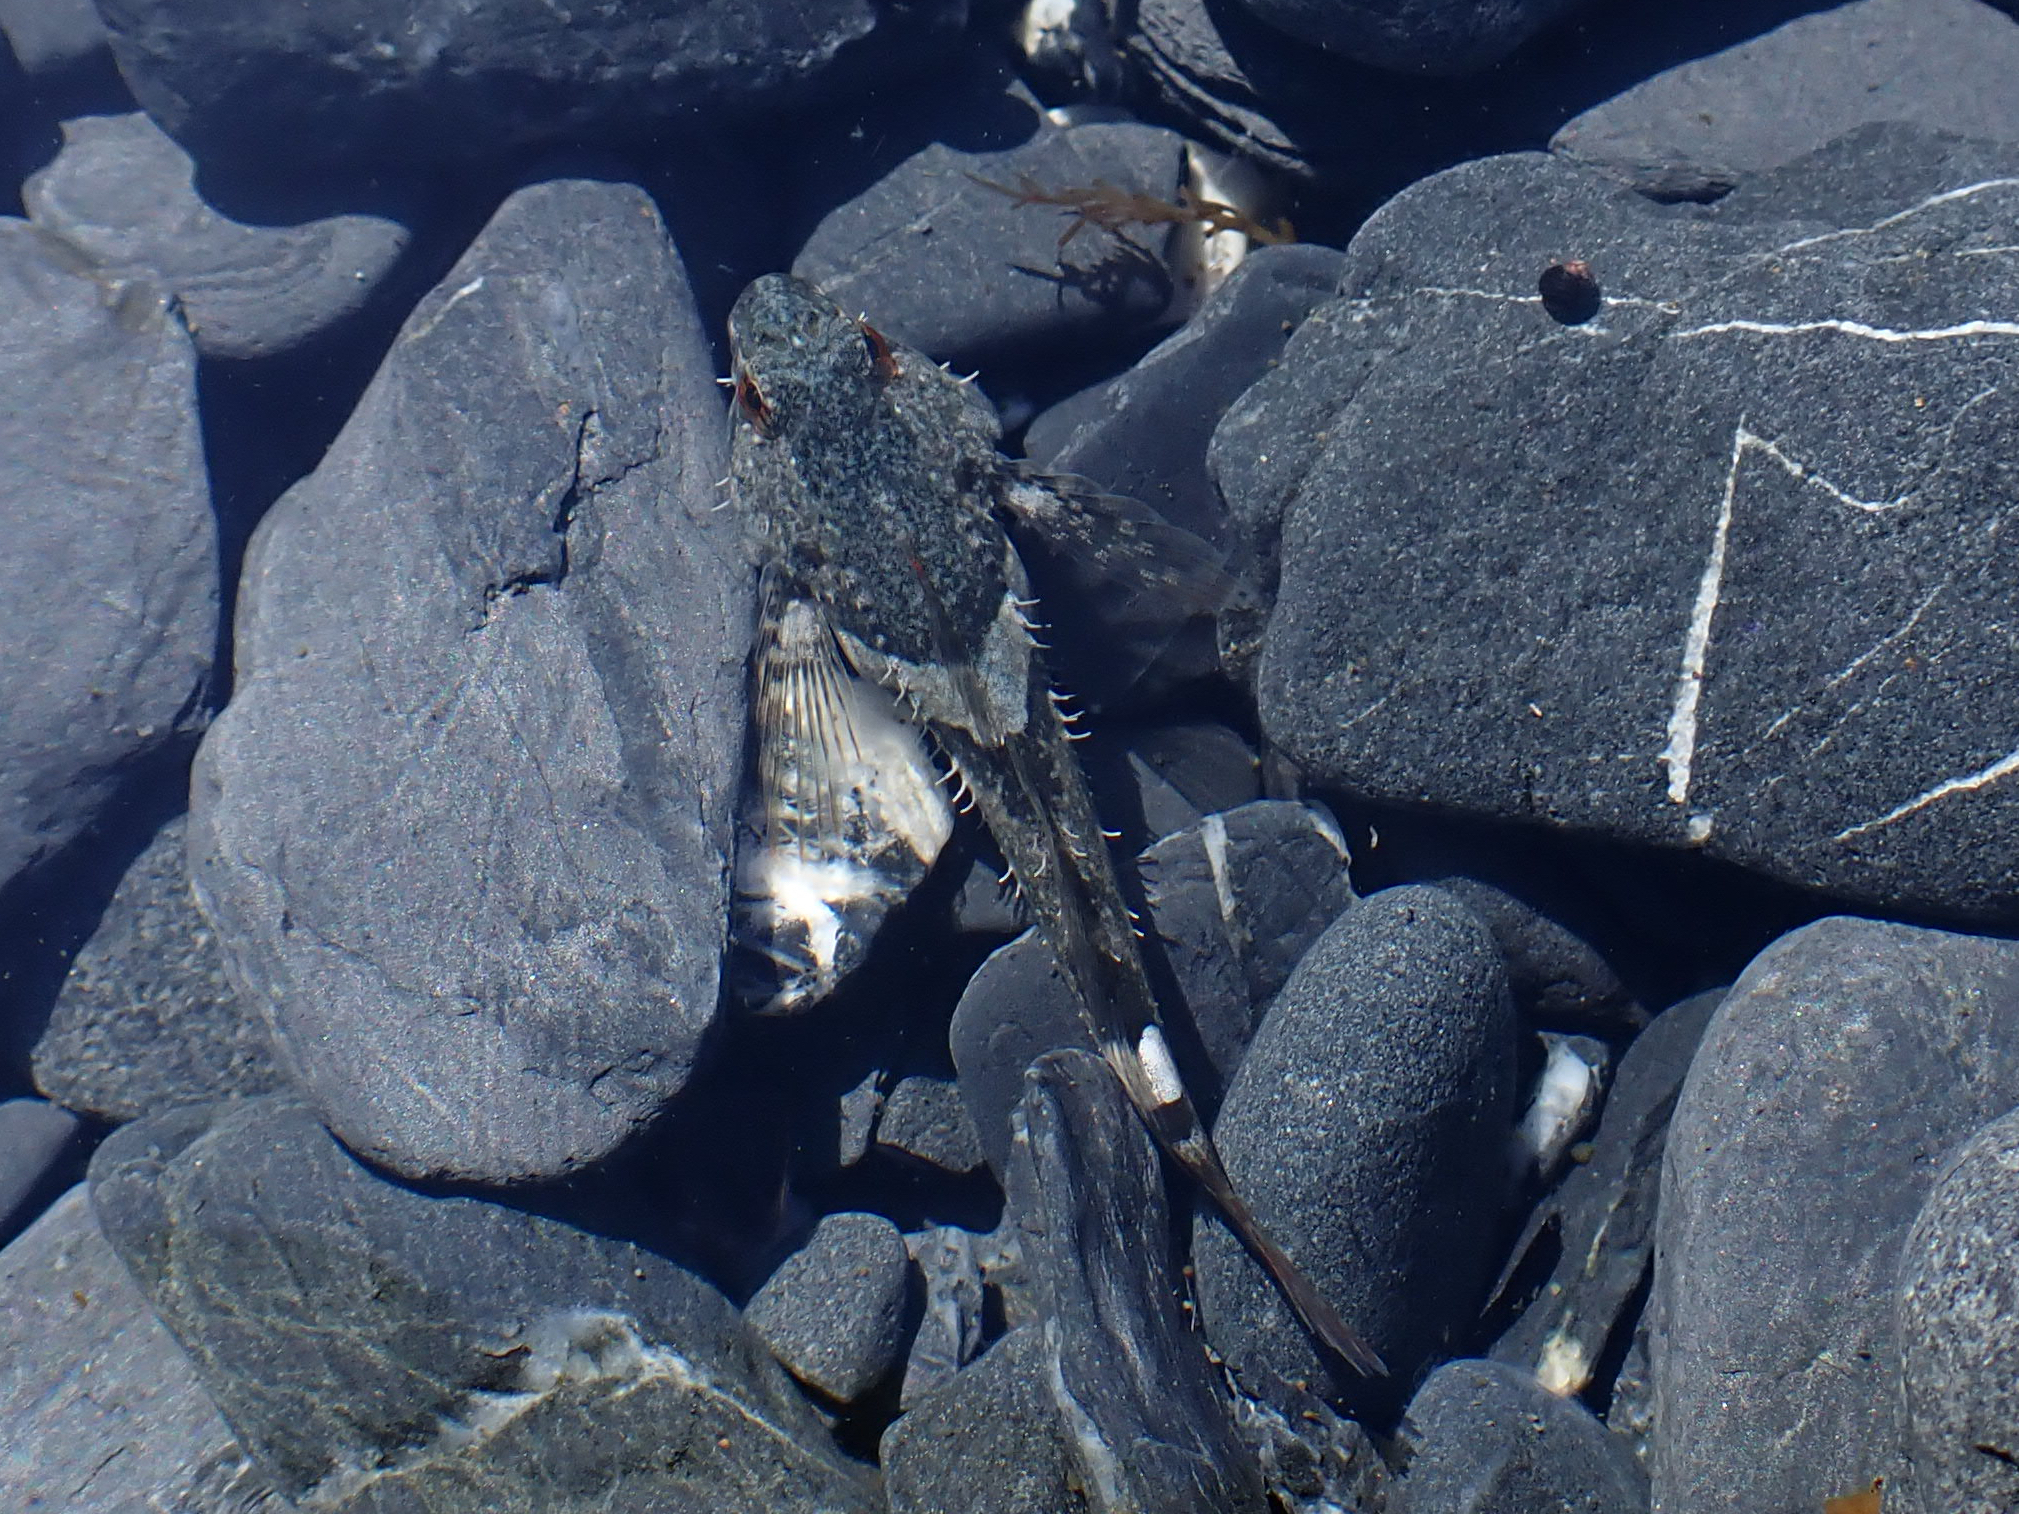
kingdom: Animalia
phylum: Chordata
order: Scorpaeniformes
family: Cottidae
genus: Oligocottus
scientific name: Oligocottus maculosus
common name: Tidepool sculpin
